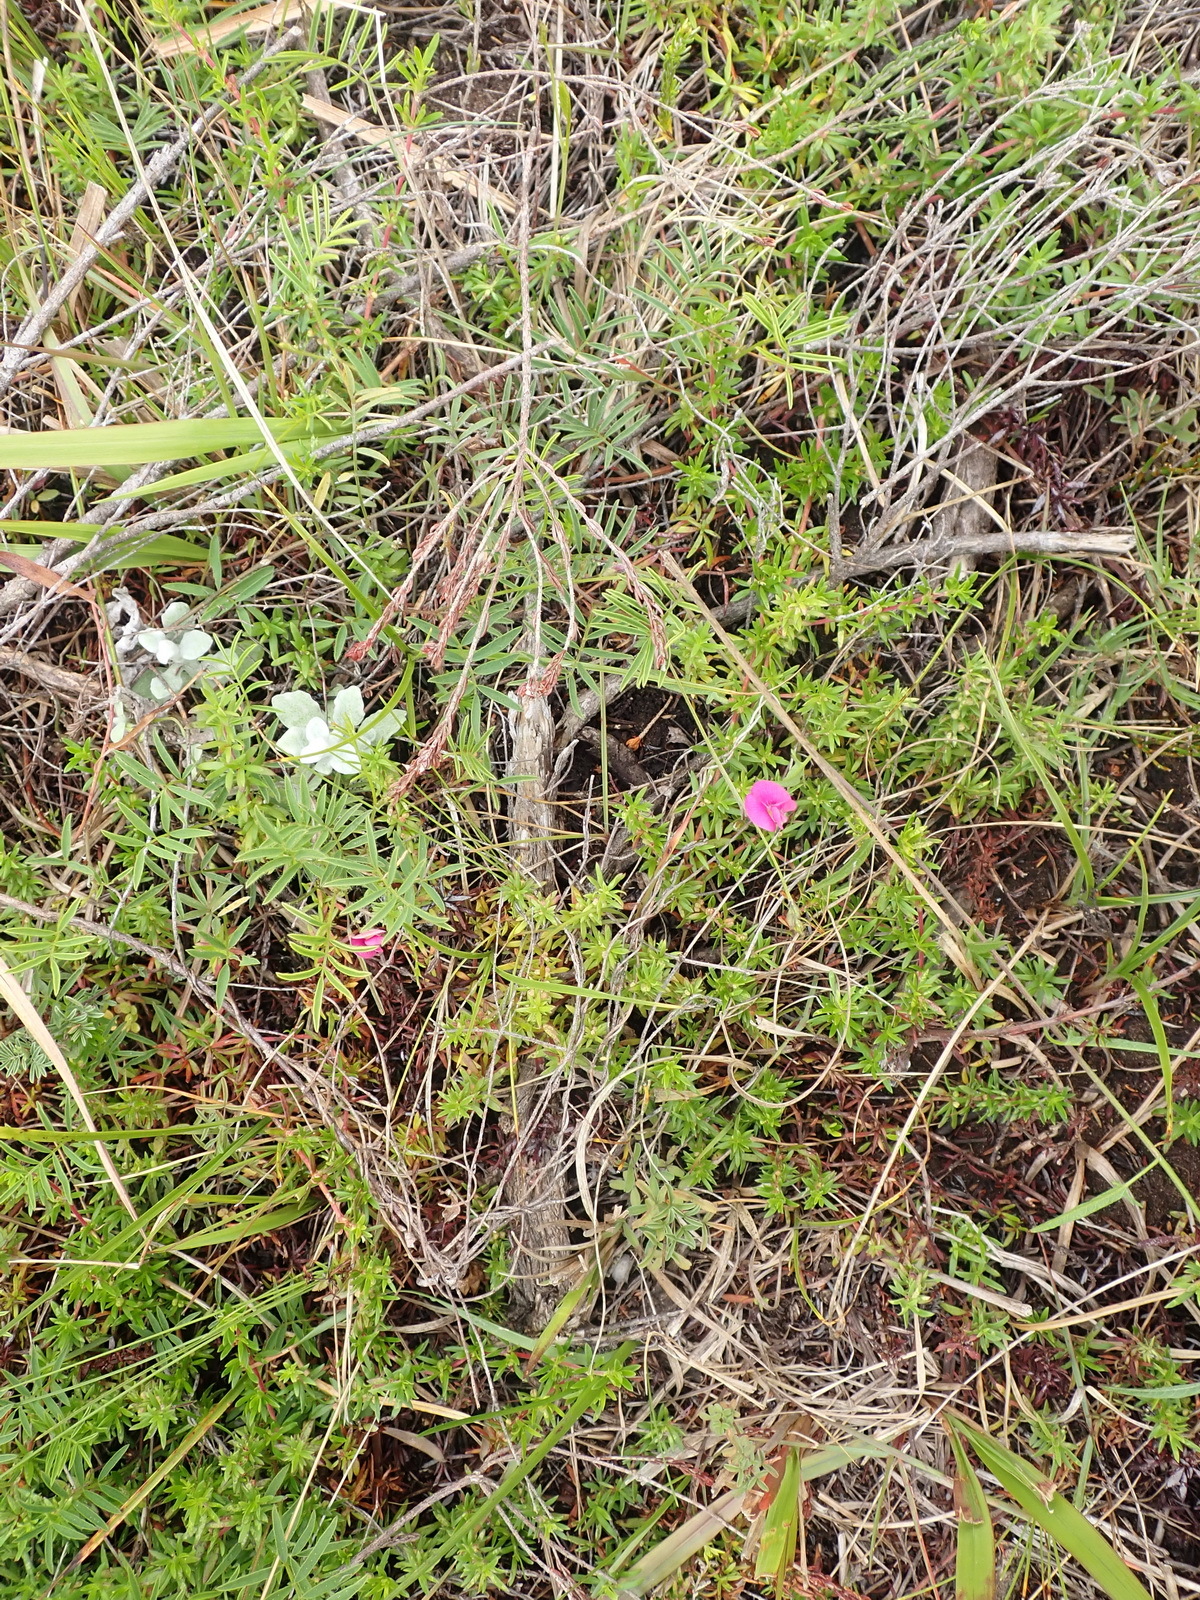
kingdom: Plantae
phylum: Tracheophyta
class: Magnoliopsida
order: Fabales
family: Fabaceae
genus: Tephrosia
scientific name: Tephrosia capensis
